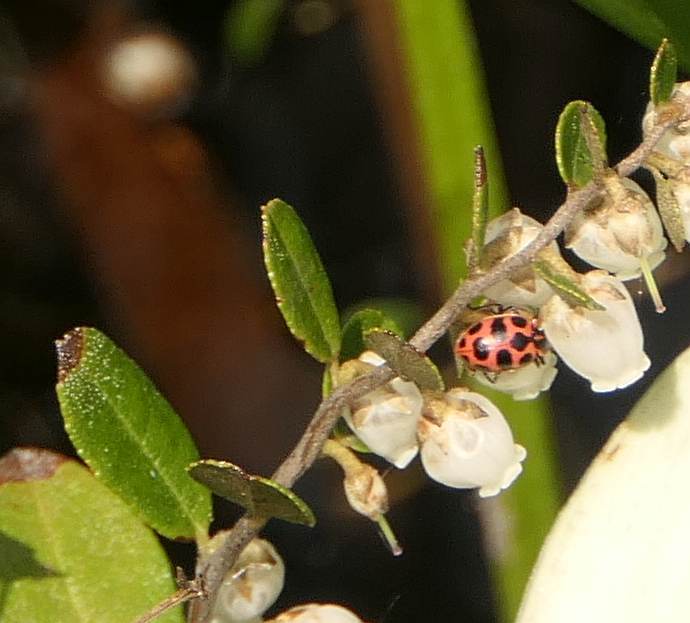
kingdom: Animalia
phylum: Arthropoda
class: Insecta
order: Coleoptera
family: Coccinellidae
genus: Coleomegilla
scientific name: Coleomegilla maculata
